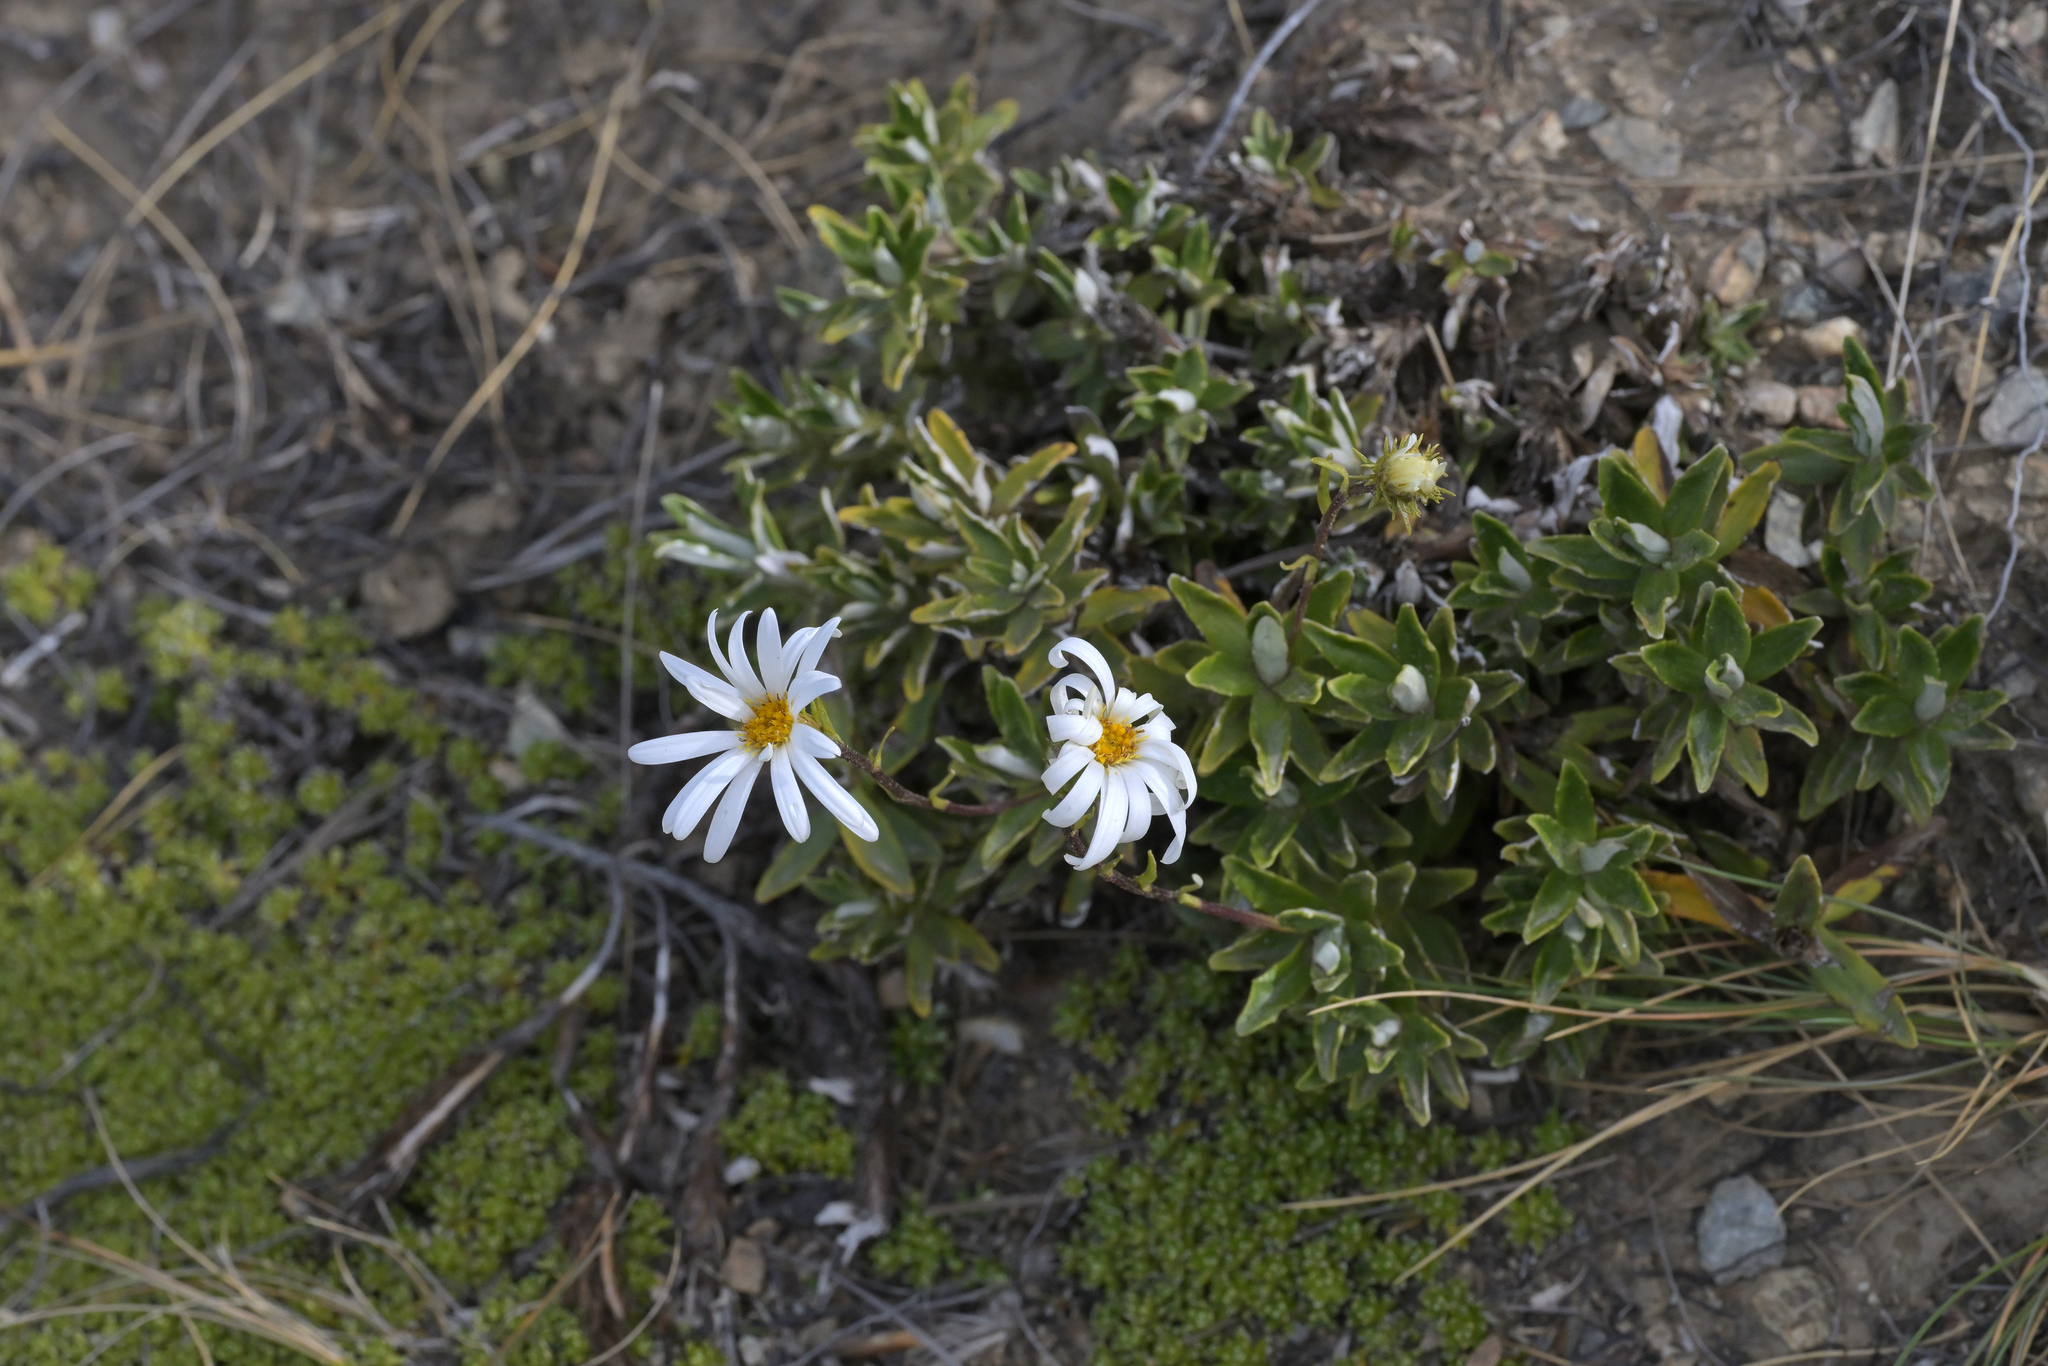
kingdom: Plantae
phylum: Tracheophyta
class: Magnoliopsida
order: Asterales
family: Asteraceae
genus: Celmisia
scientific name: Celmisia angustifolia
